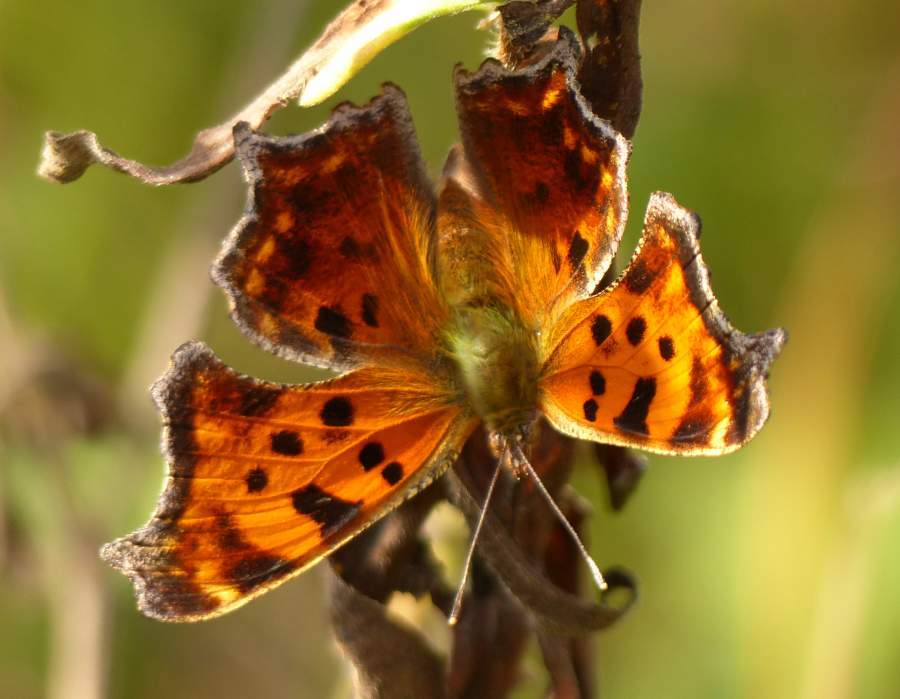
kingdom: Animalia
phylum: Arthropoda
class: Insecta
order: Lepidoptera
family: Nymphalidae
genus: Polygonia
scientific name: Polygonia comma
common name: Eastern comma
